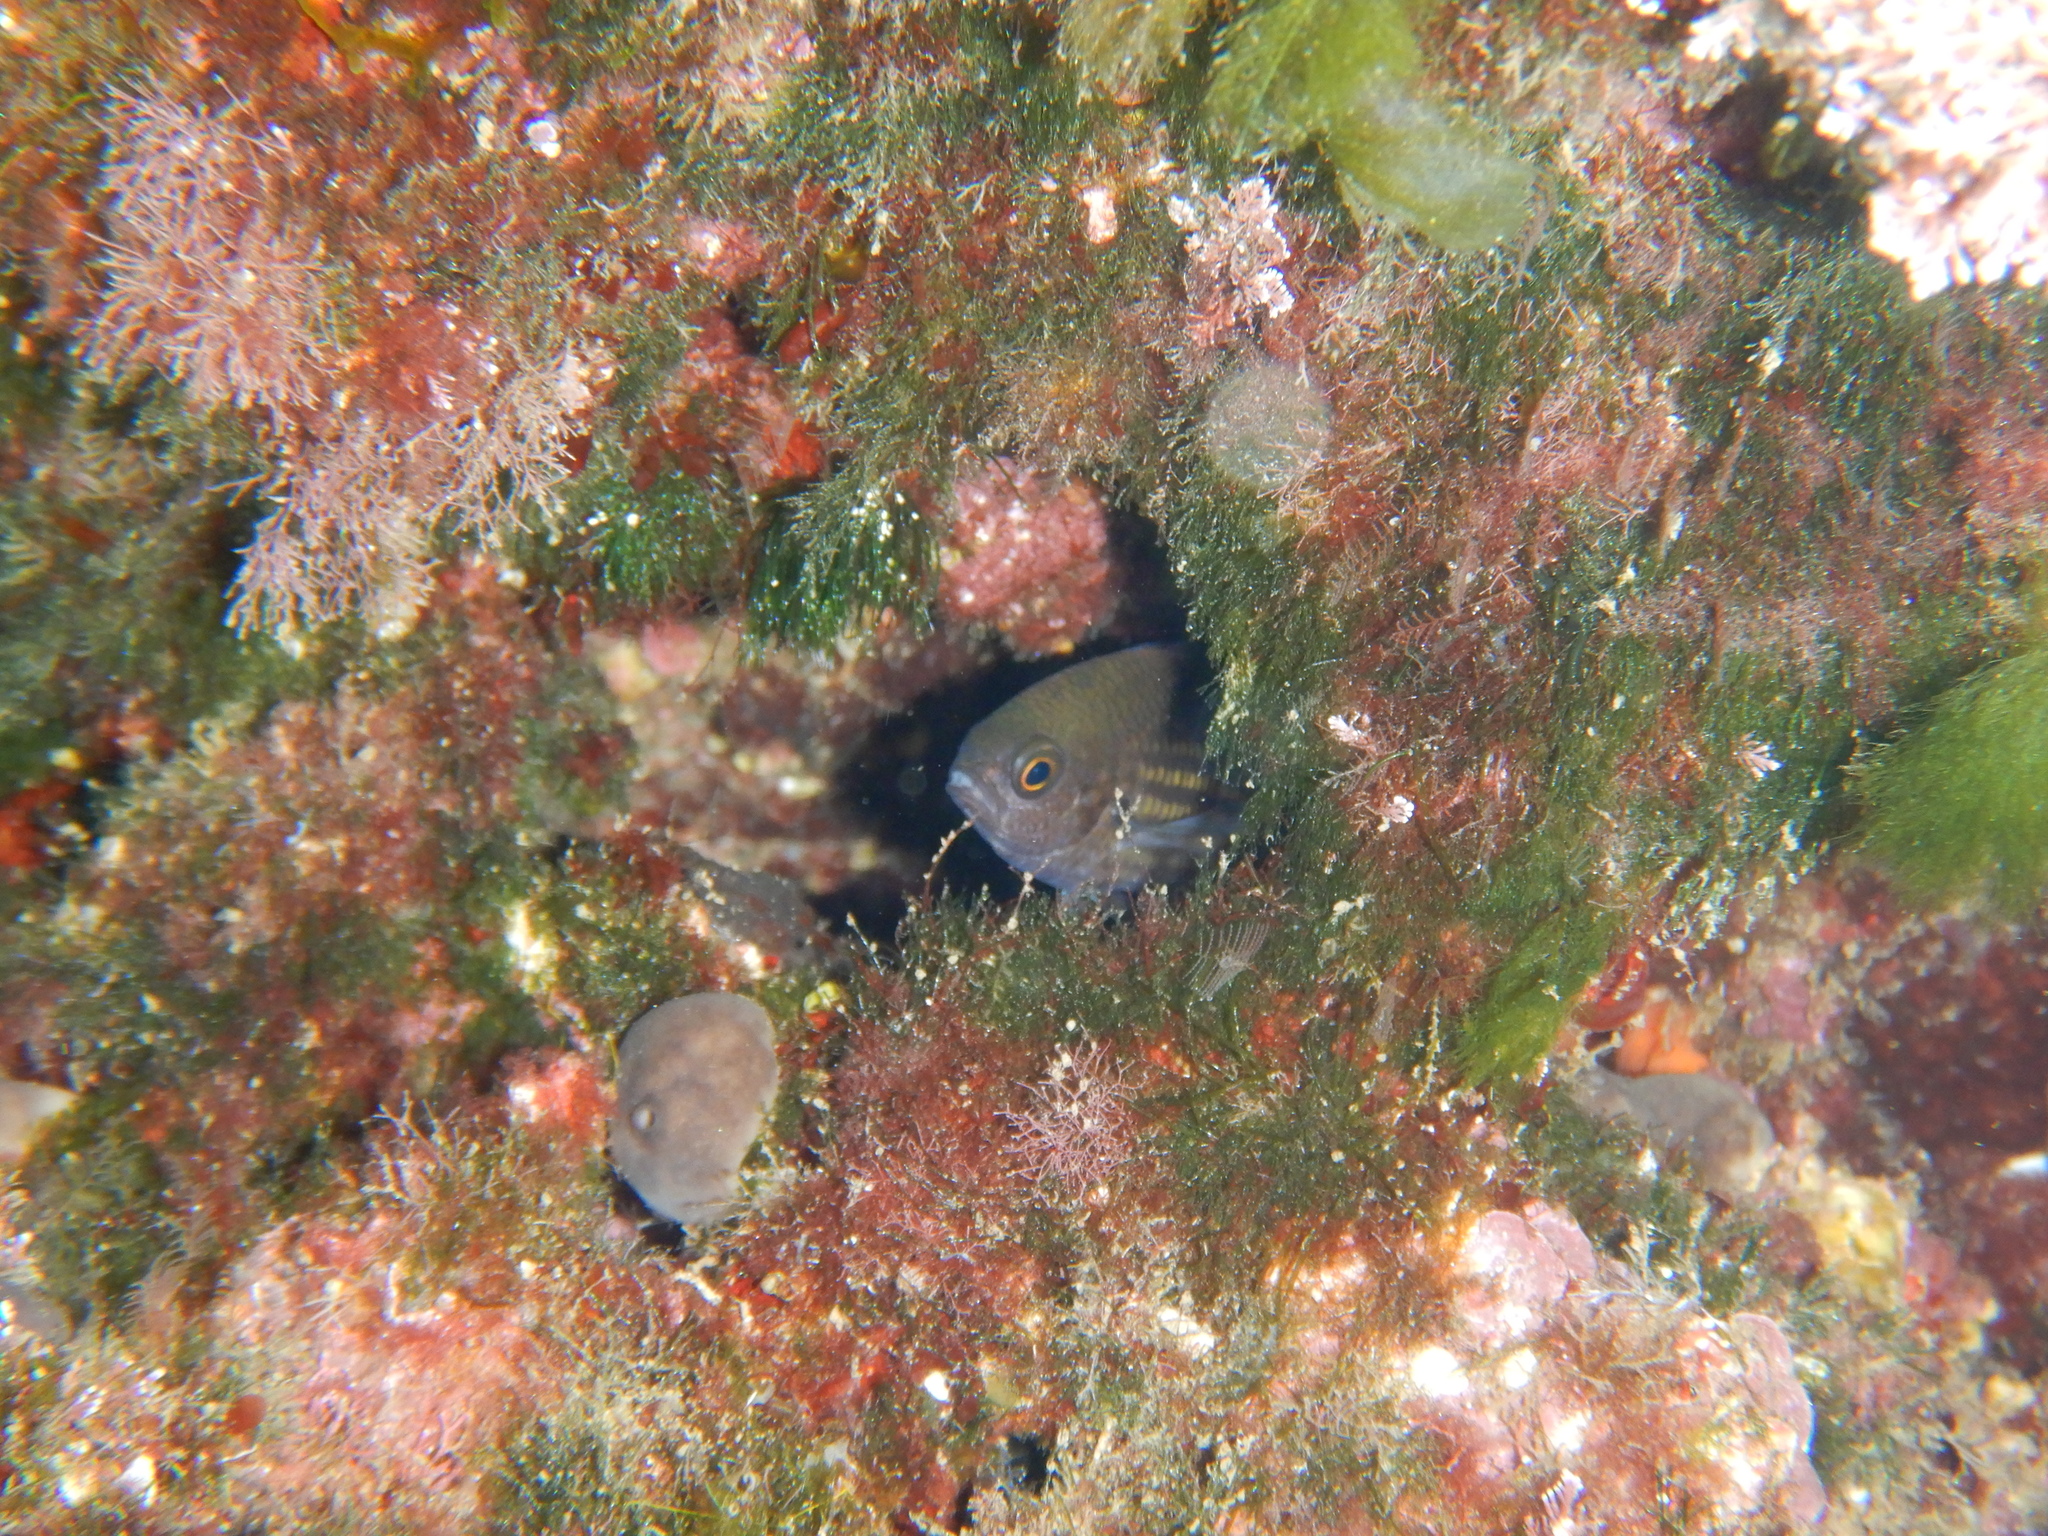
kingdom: Animalia
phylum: Chordata
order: Perciformes
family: Pomacentridae
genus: Chromis
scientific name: Chromis chromis
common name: Damselfish
